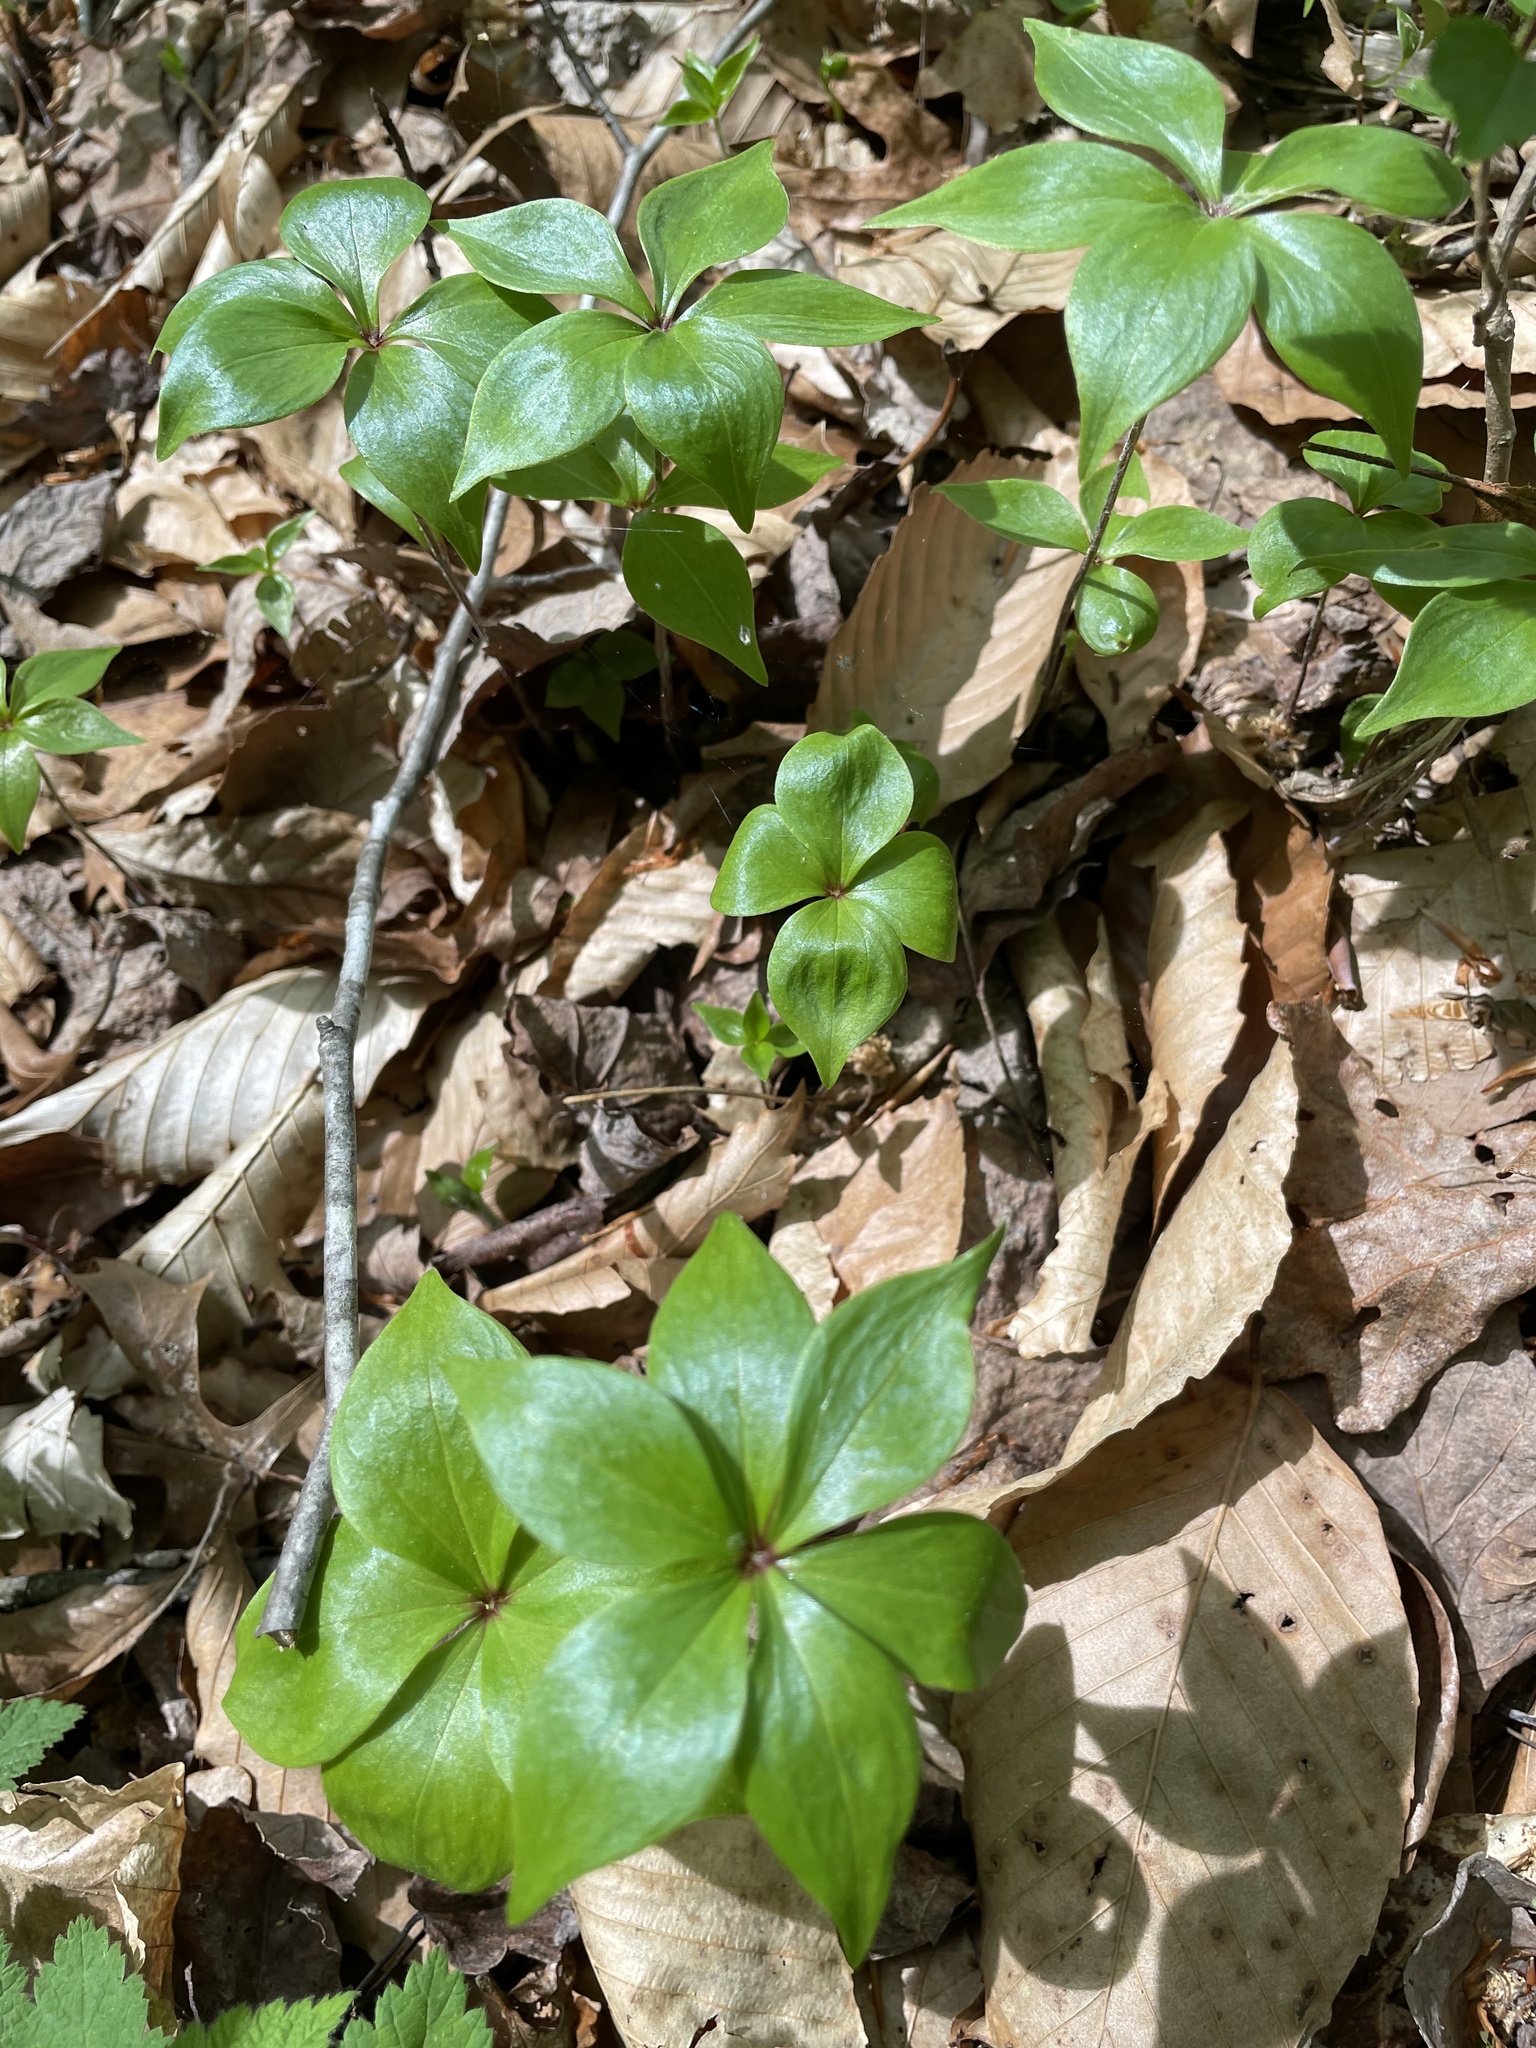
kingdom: Plantae
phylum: Tracheophyta
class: Liliopsida
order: Liliales
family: Liliaceae
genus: Medeola
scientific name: Medeola virginiana
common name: Indian cucumber-root
